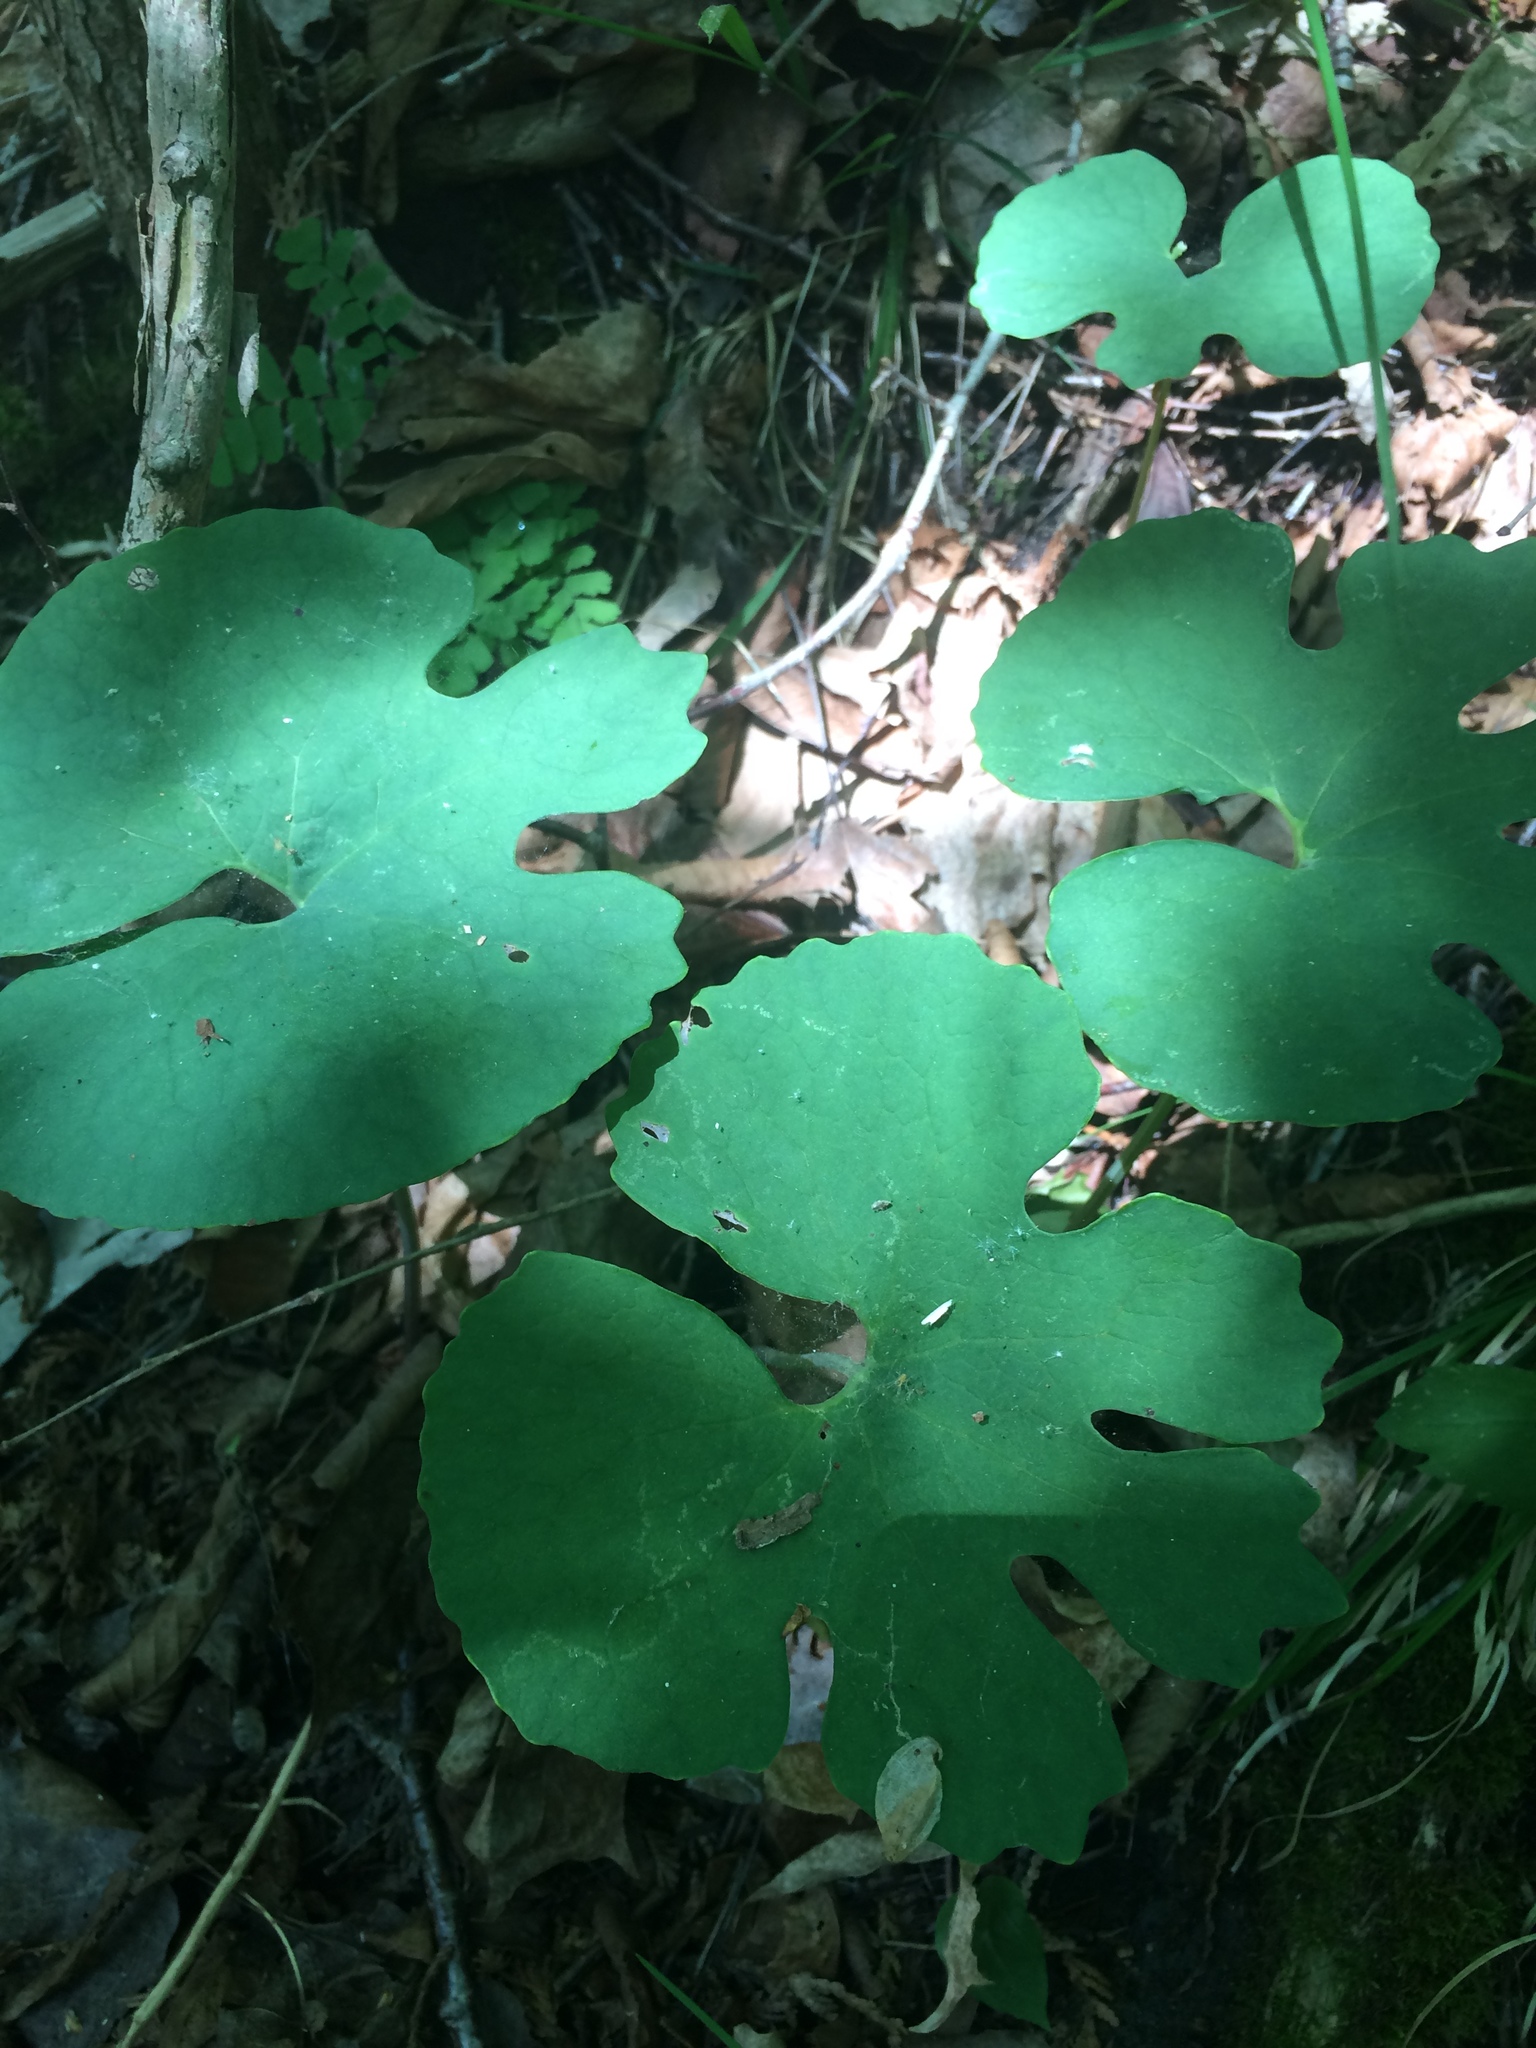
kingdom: Plantae
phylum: Tracheophyta
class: Magnoliopsida
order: Ranunculales
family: Papaveraceae
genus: Sanguinaria
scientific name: Sanguinaria canadensis
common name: Bloodroot
